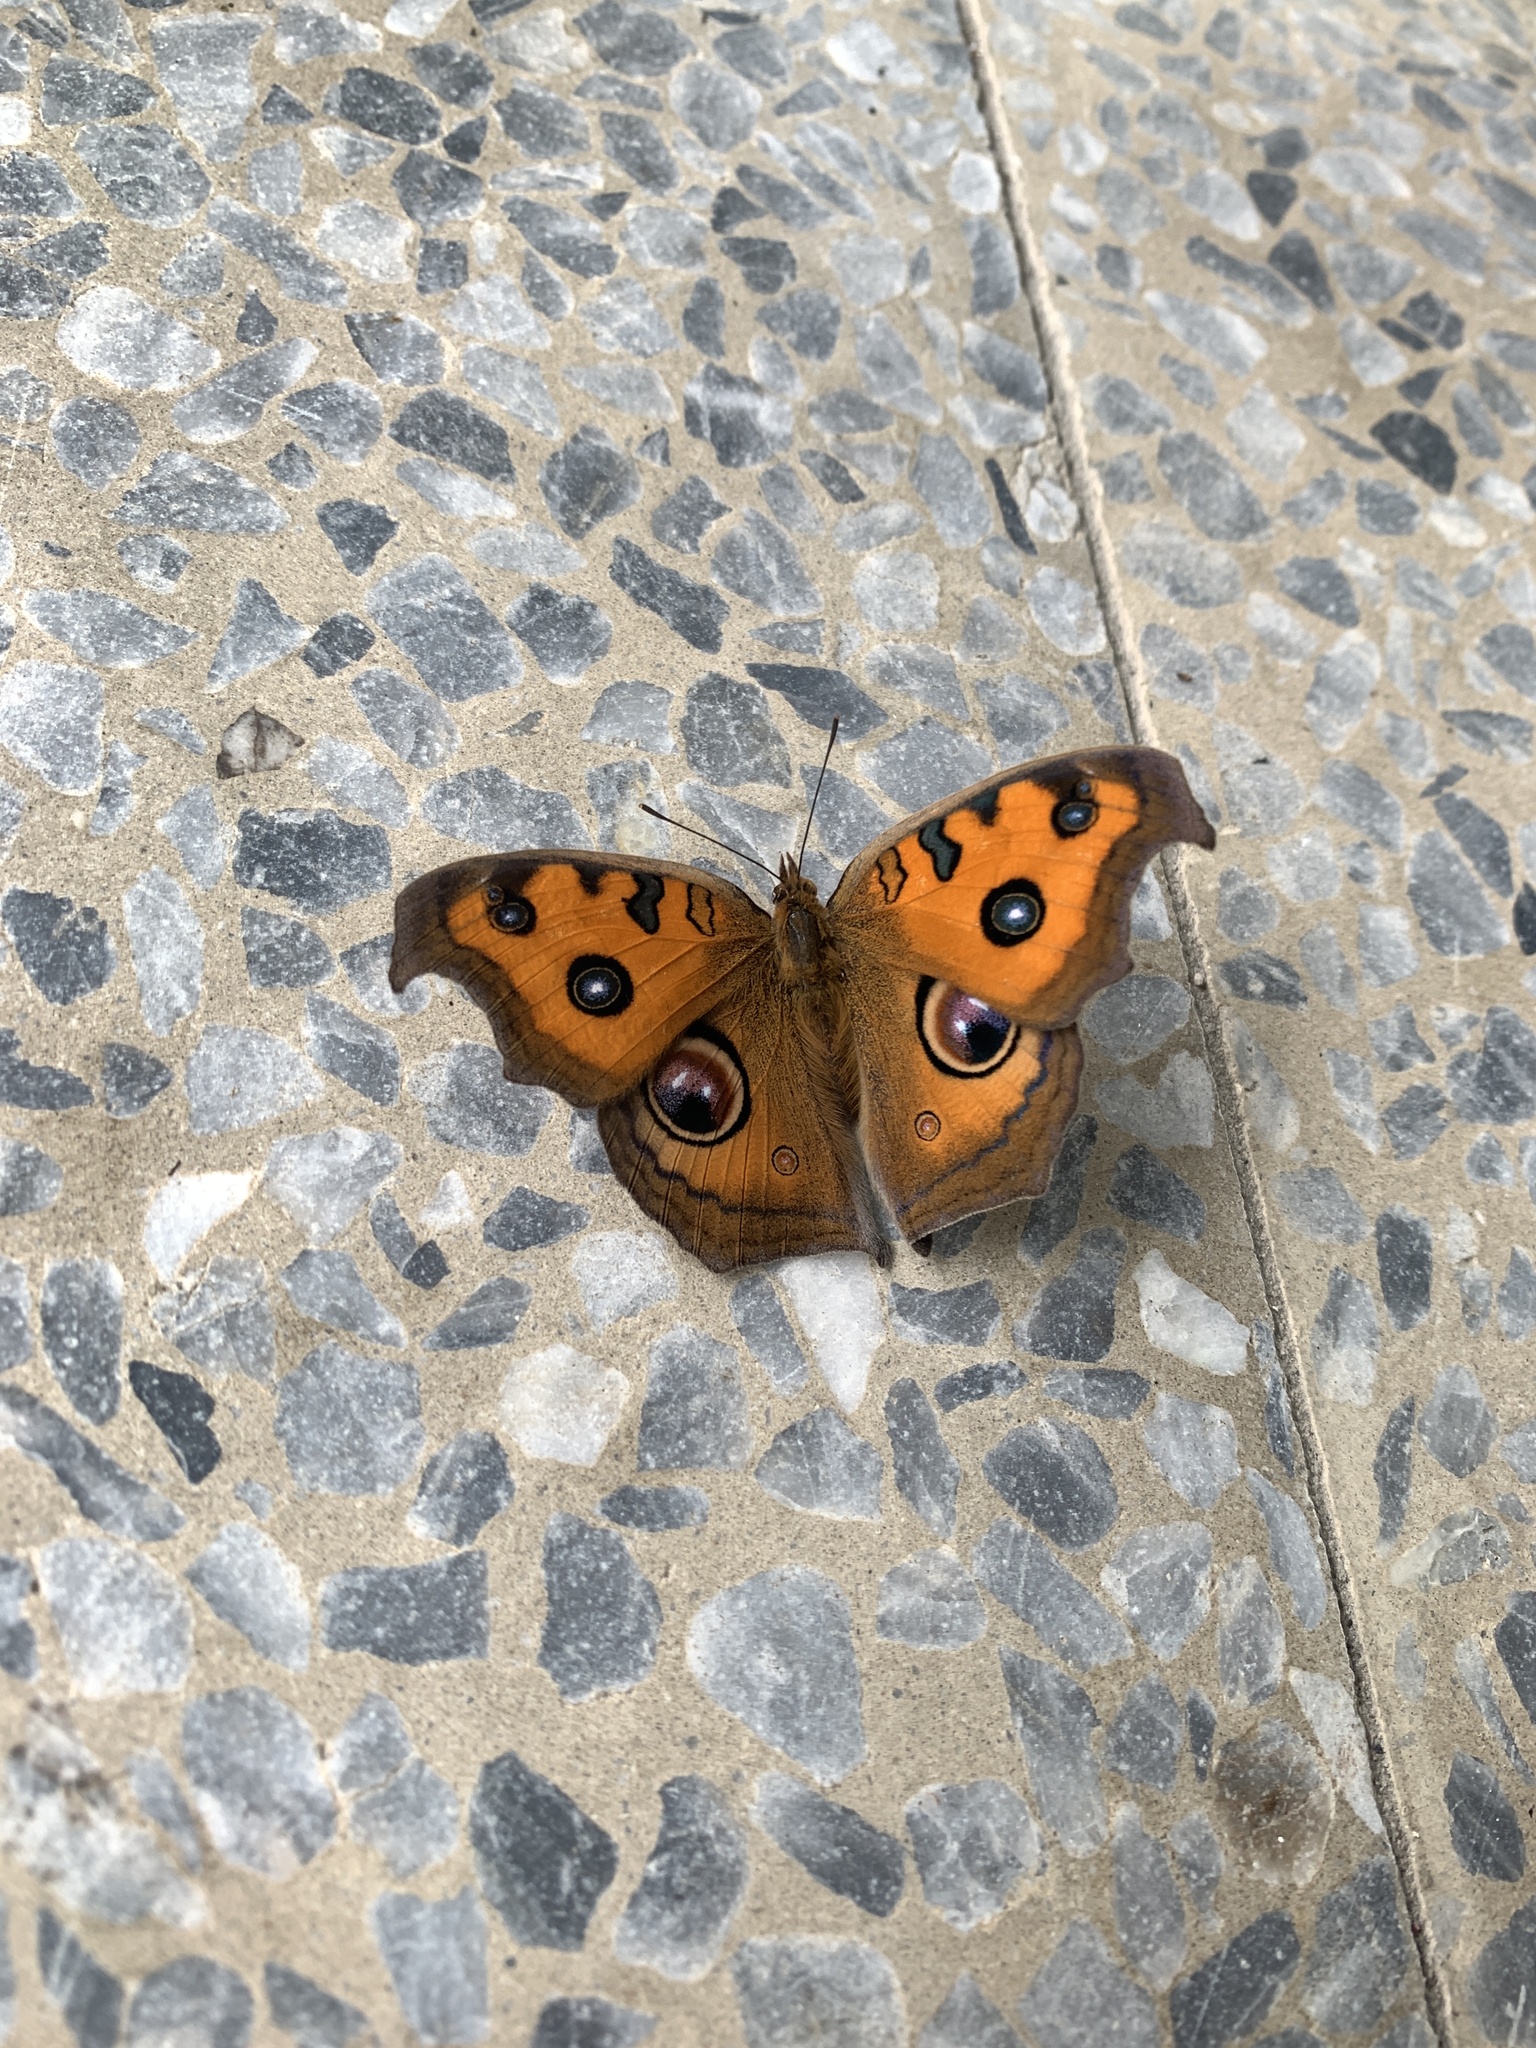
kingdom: Animalia
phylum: Arthropoda
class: Insecta
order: Lepidoptera
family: Nymphalidae
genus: Junonia
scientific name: Junonia almana
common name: Peacock pansy
